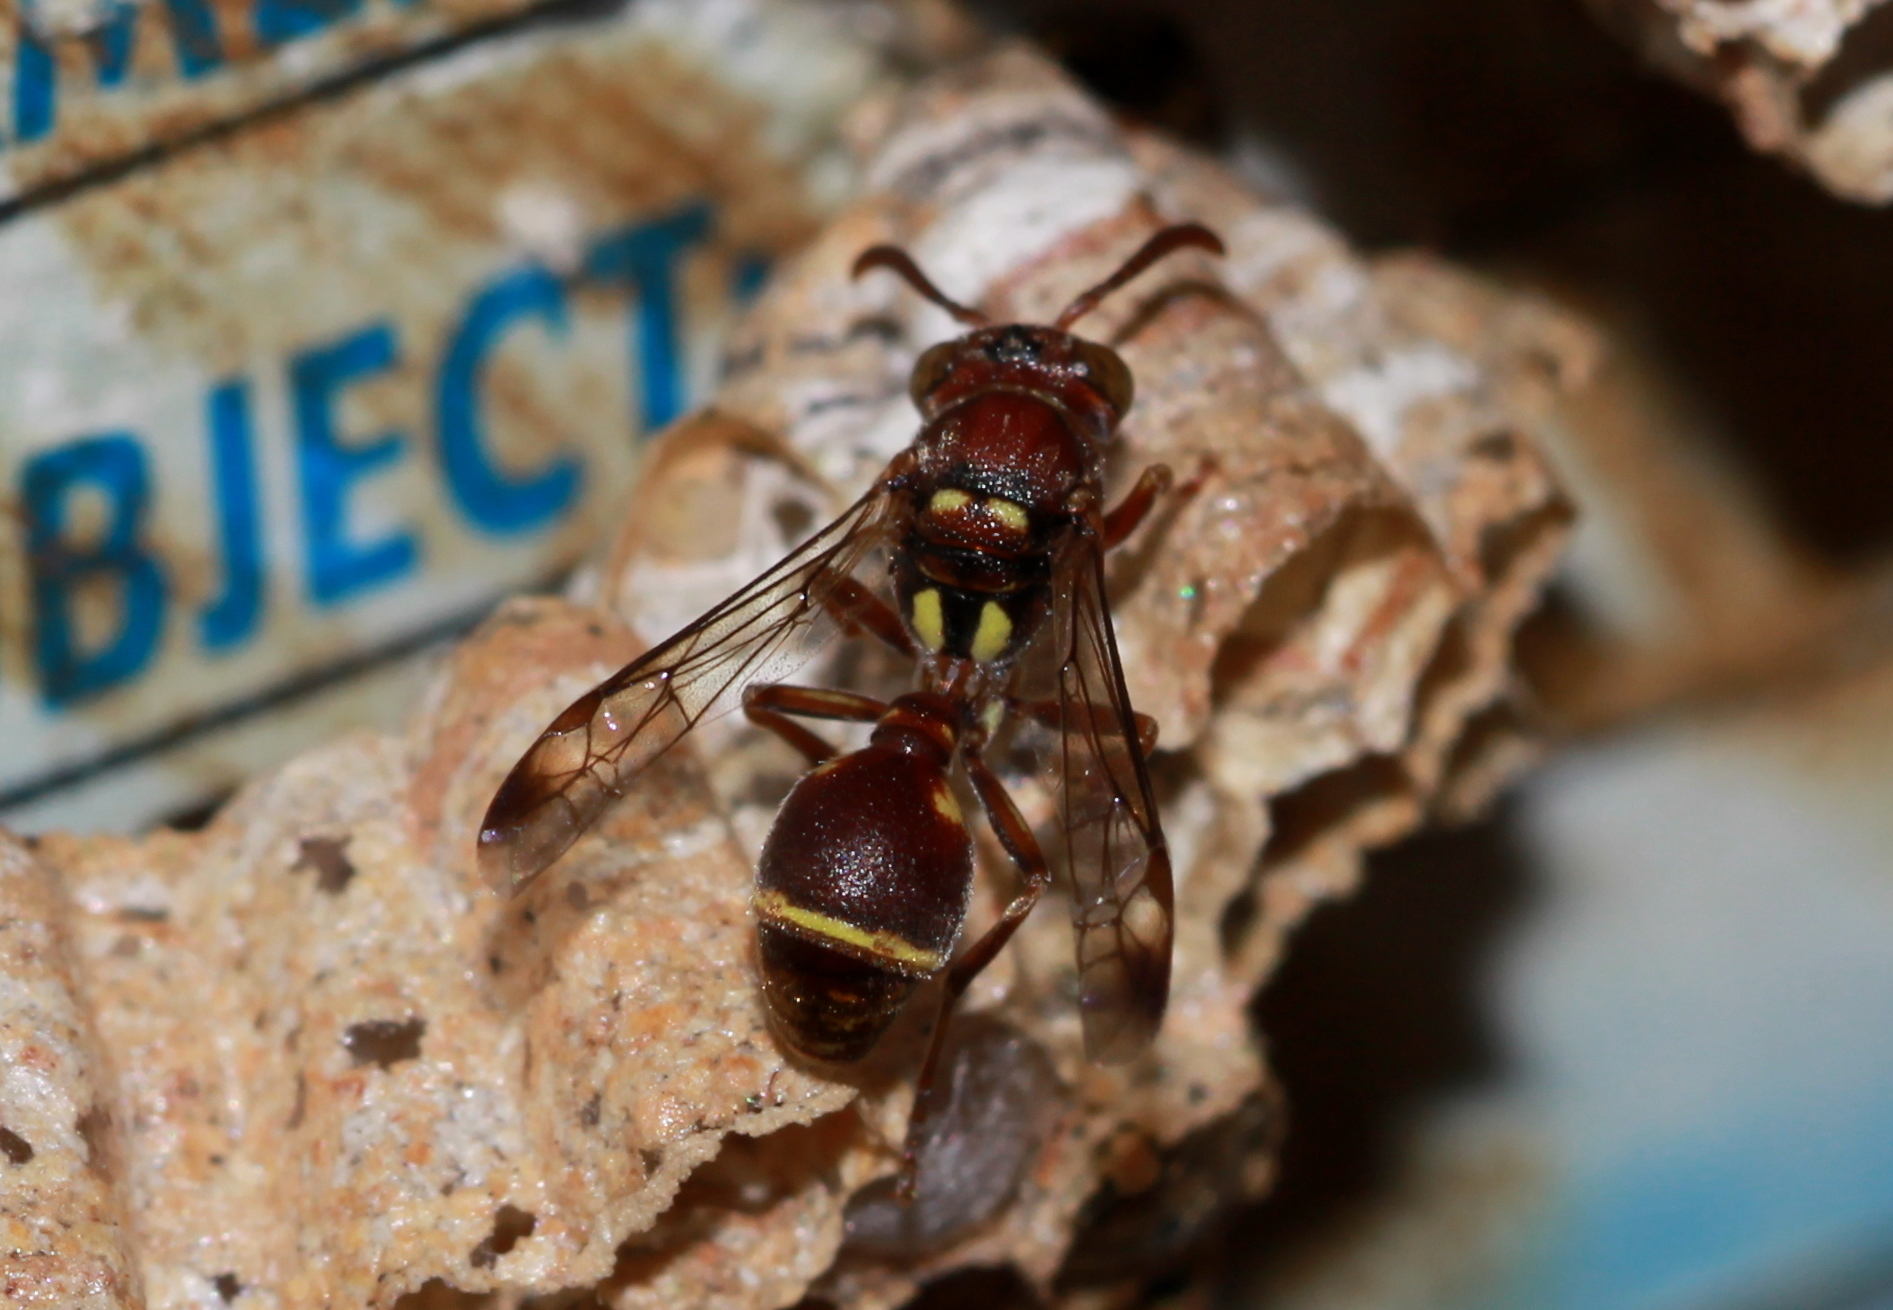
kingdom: Animalia
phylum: Arthropoda
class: Insecta
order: Hymenoptera
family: Vespidae
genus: Ropalidia
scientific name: Ropalidia cyathiformis
